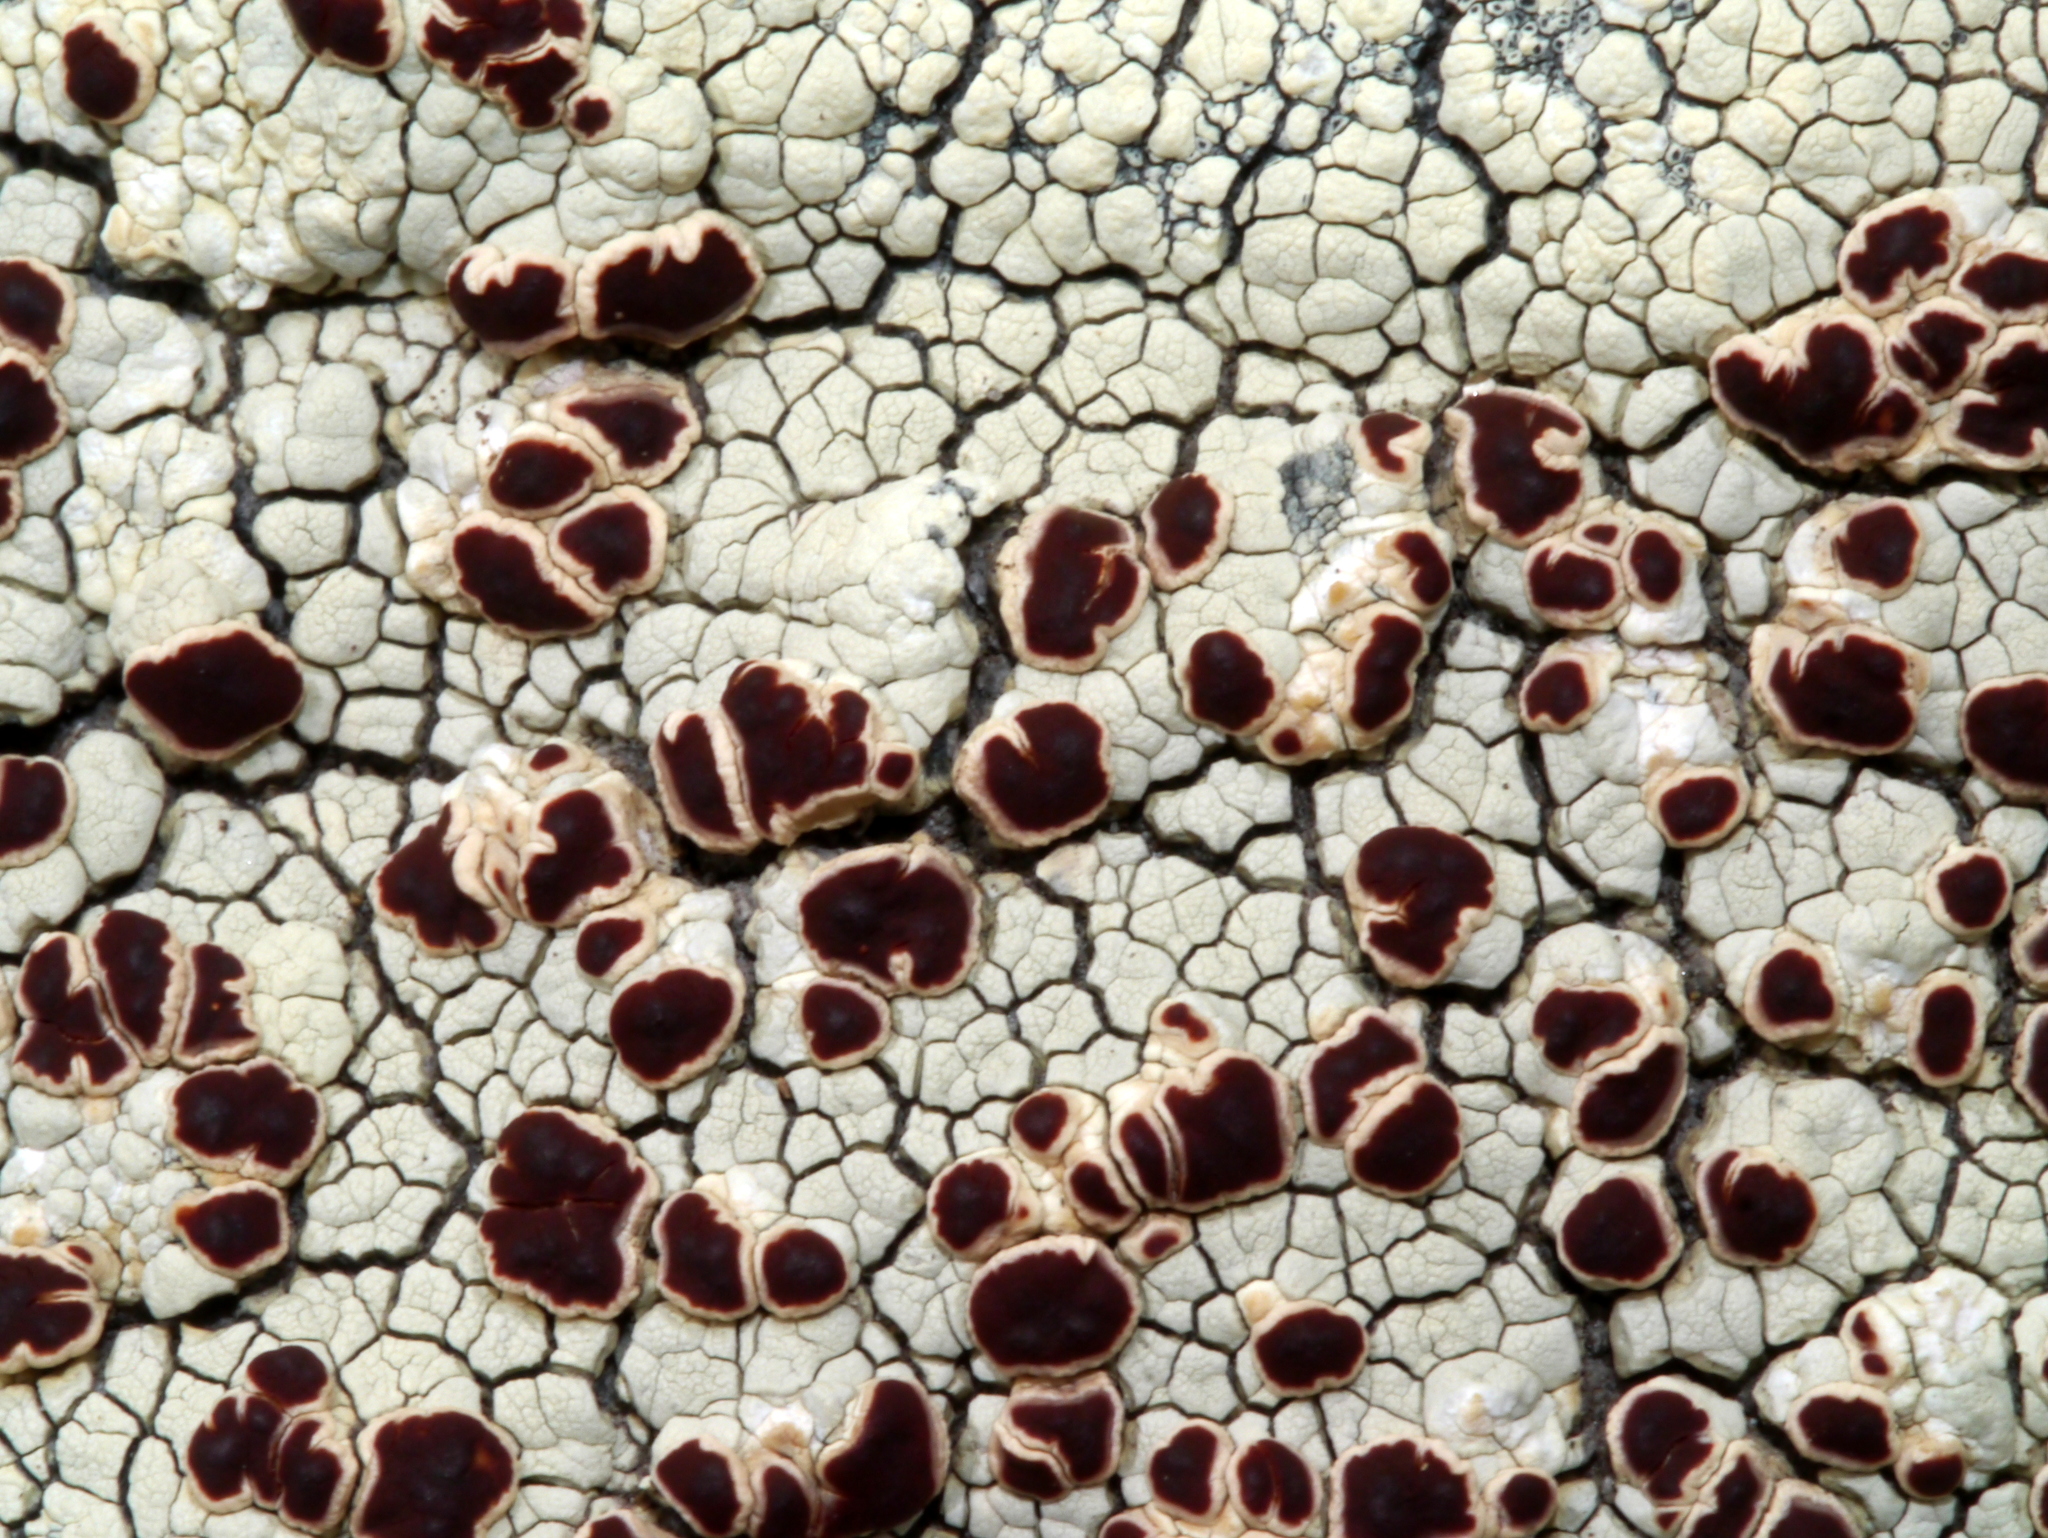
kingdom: Fungi
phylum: Ascomycota
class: Lecanoromycetes
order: Umbilicariales
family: Ophioparmaceae
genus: Ophioparma
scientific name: Ophioparma ventosa
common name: Blood-spot
